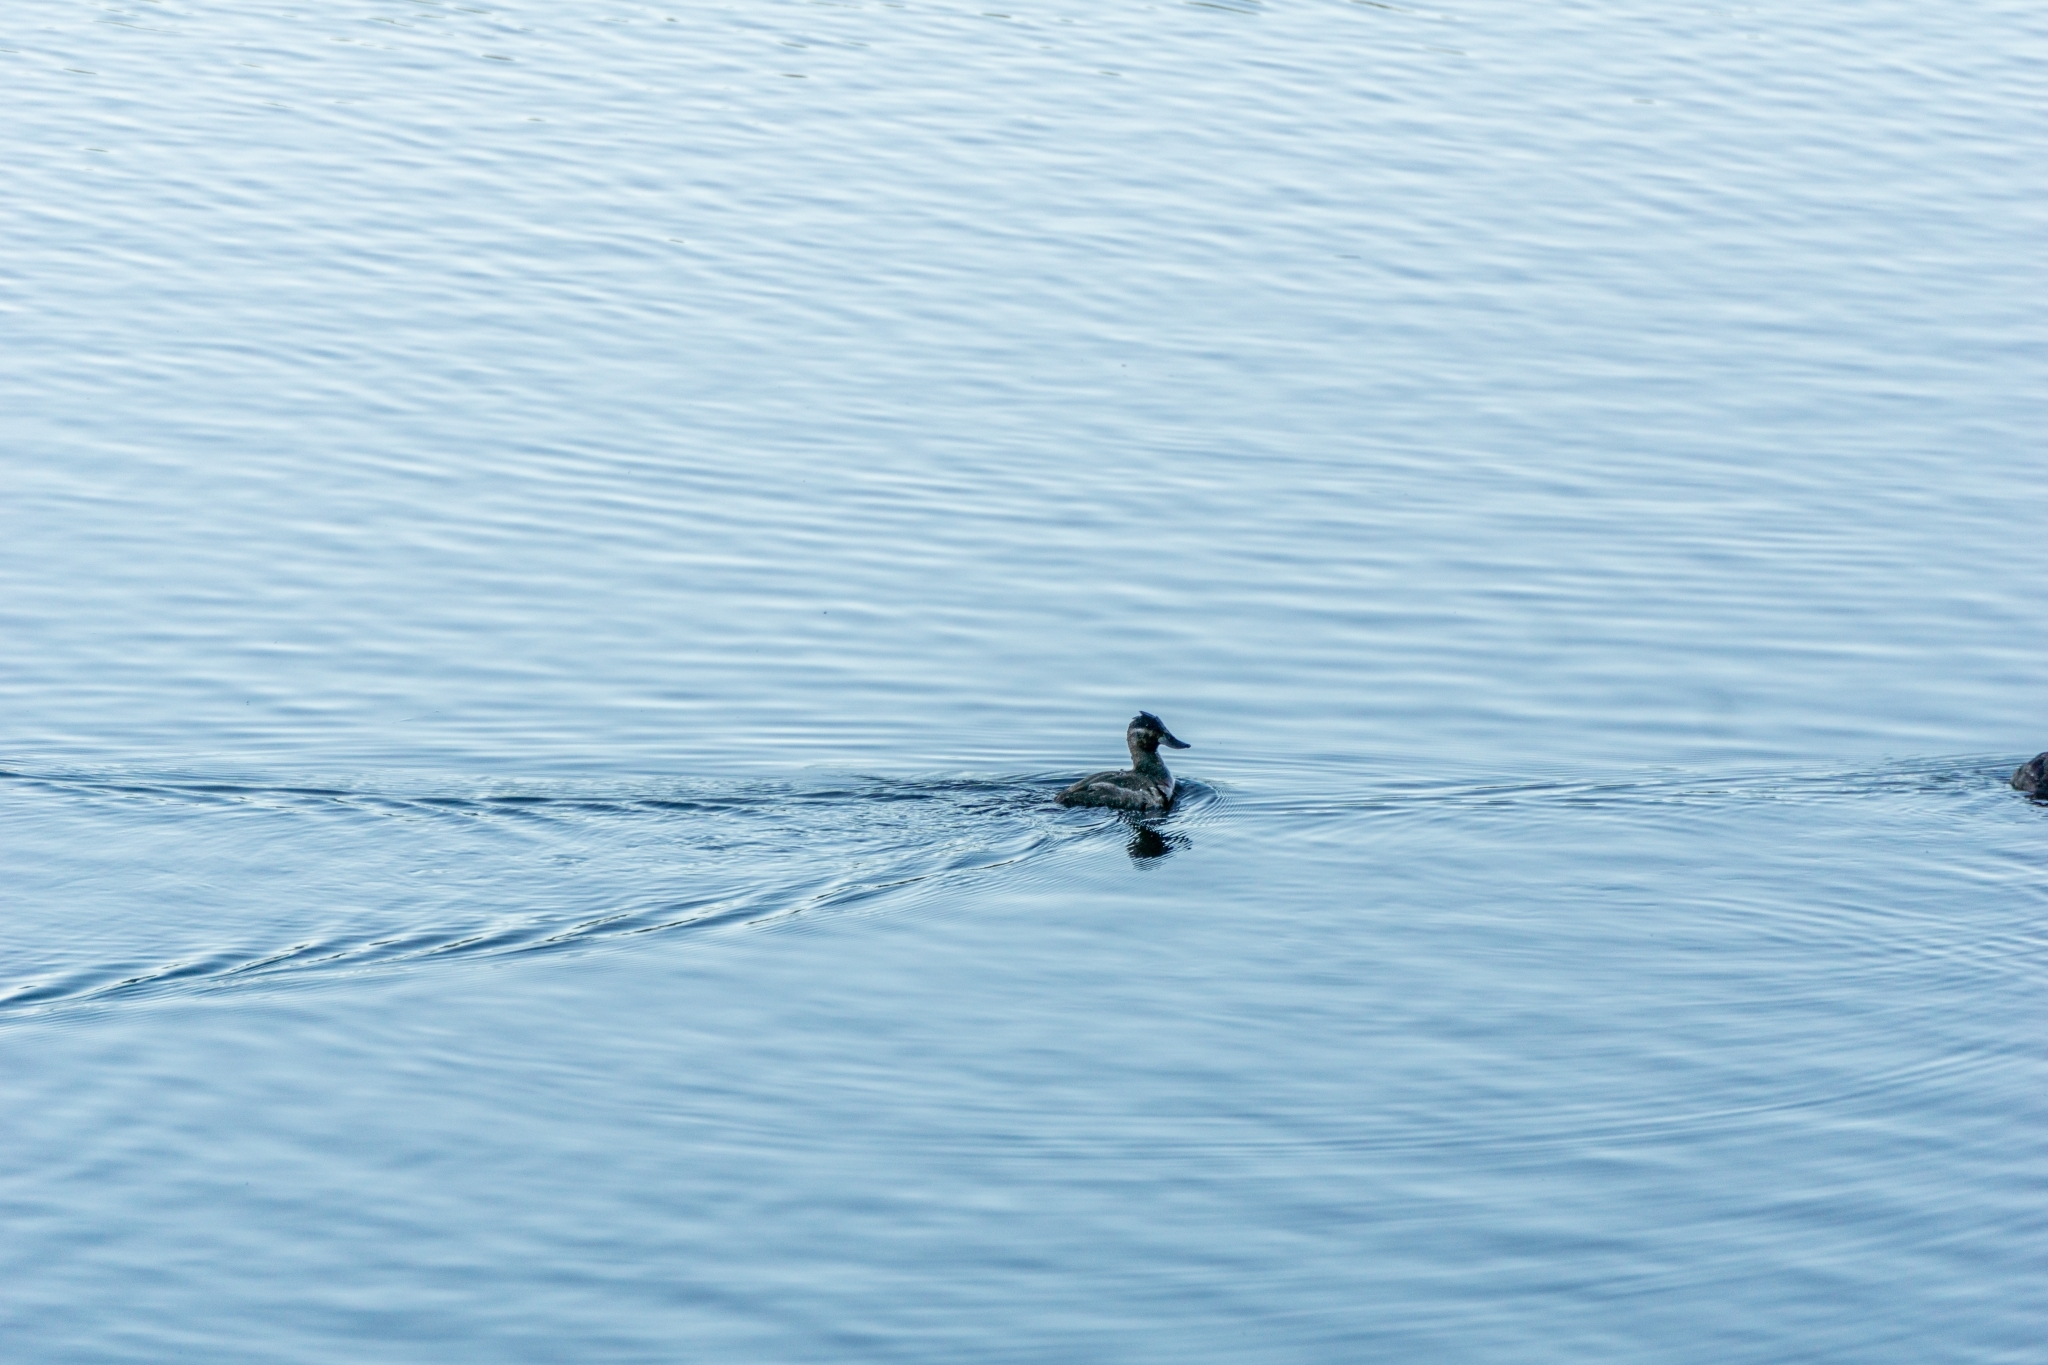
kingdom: Animalia
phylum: Chordata
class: Aves
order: Anseriformes
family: Anatidae
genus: Oxyura
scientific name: Oxyura jamaicensis
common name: Ruddy duck
